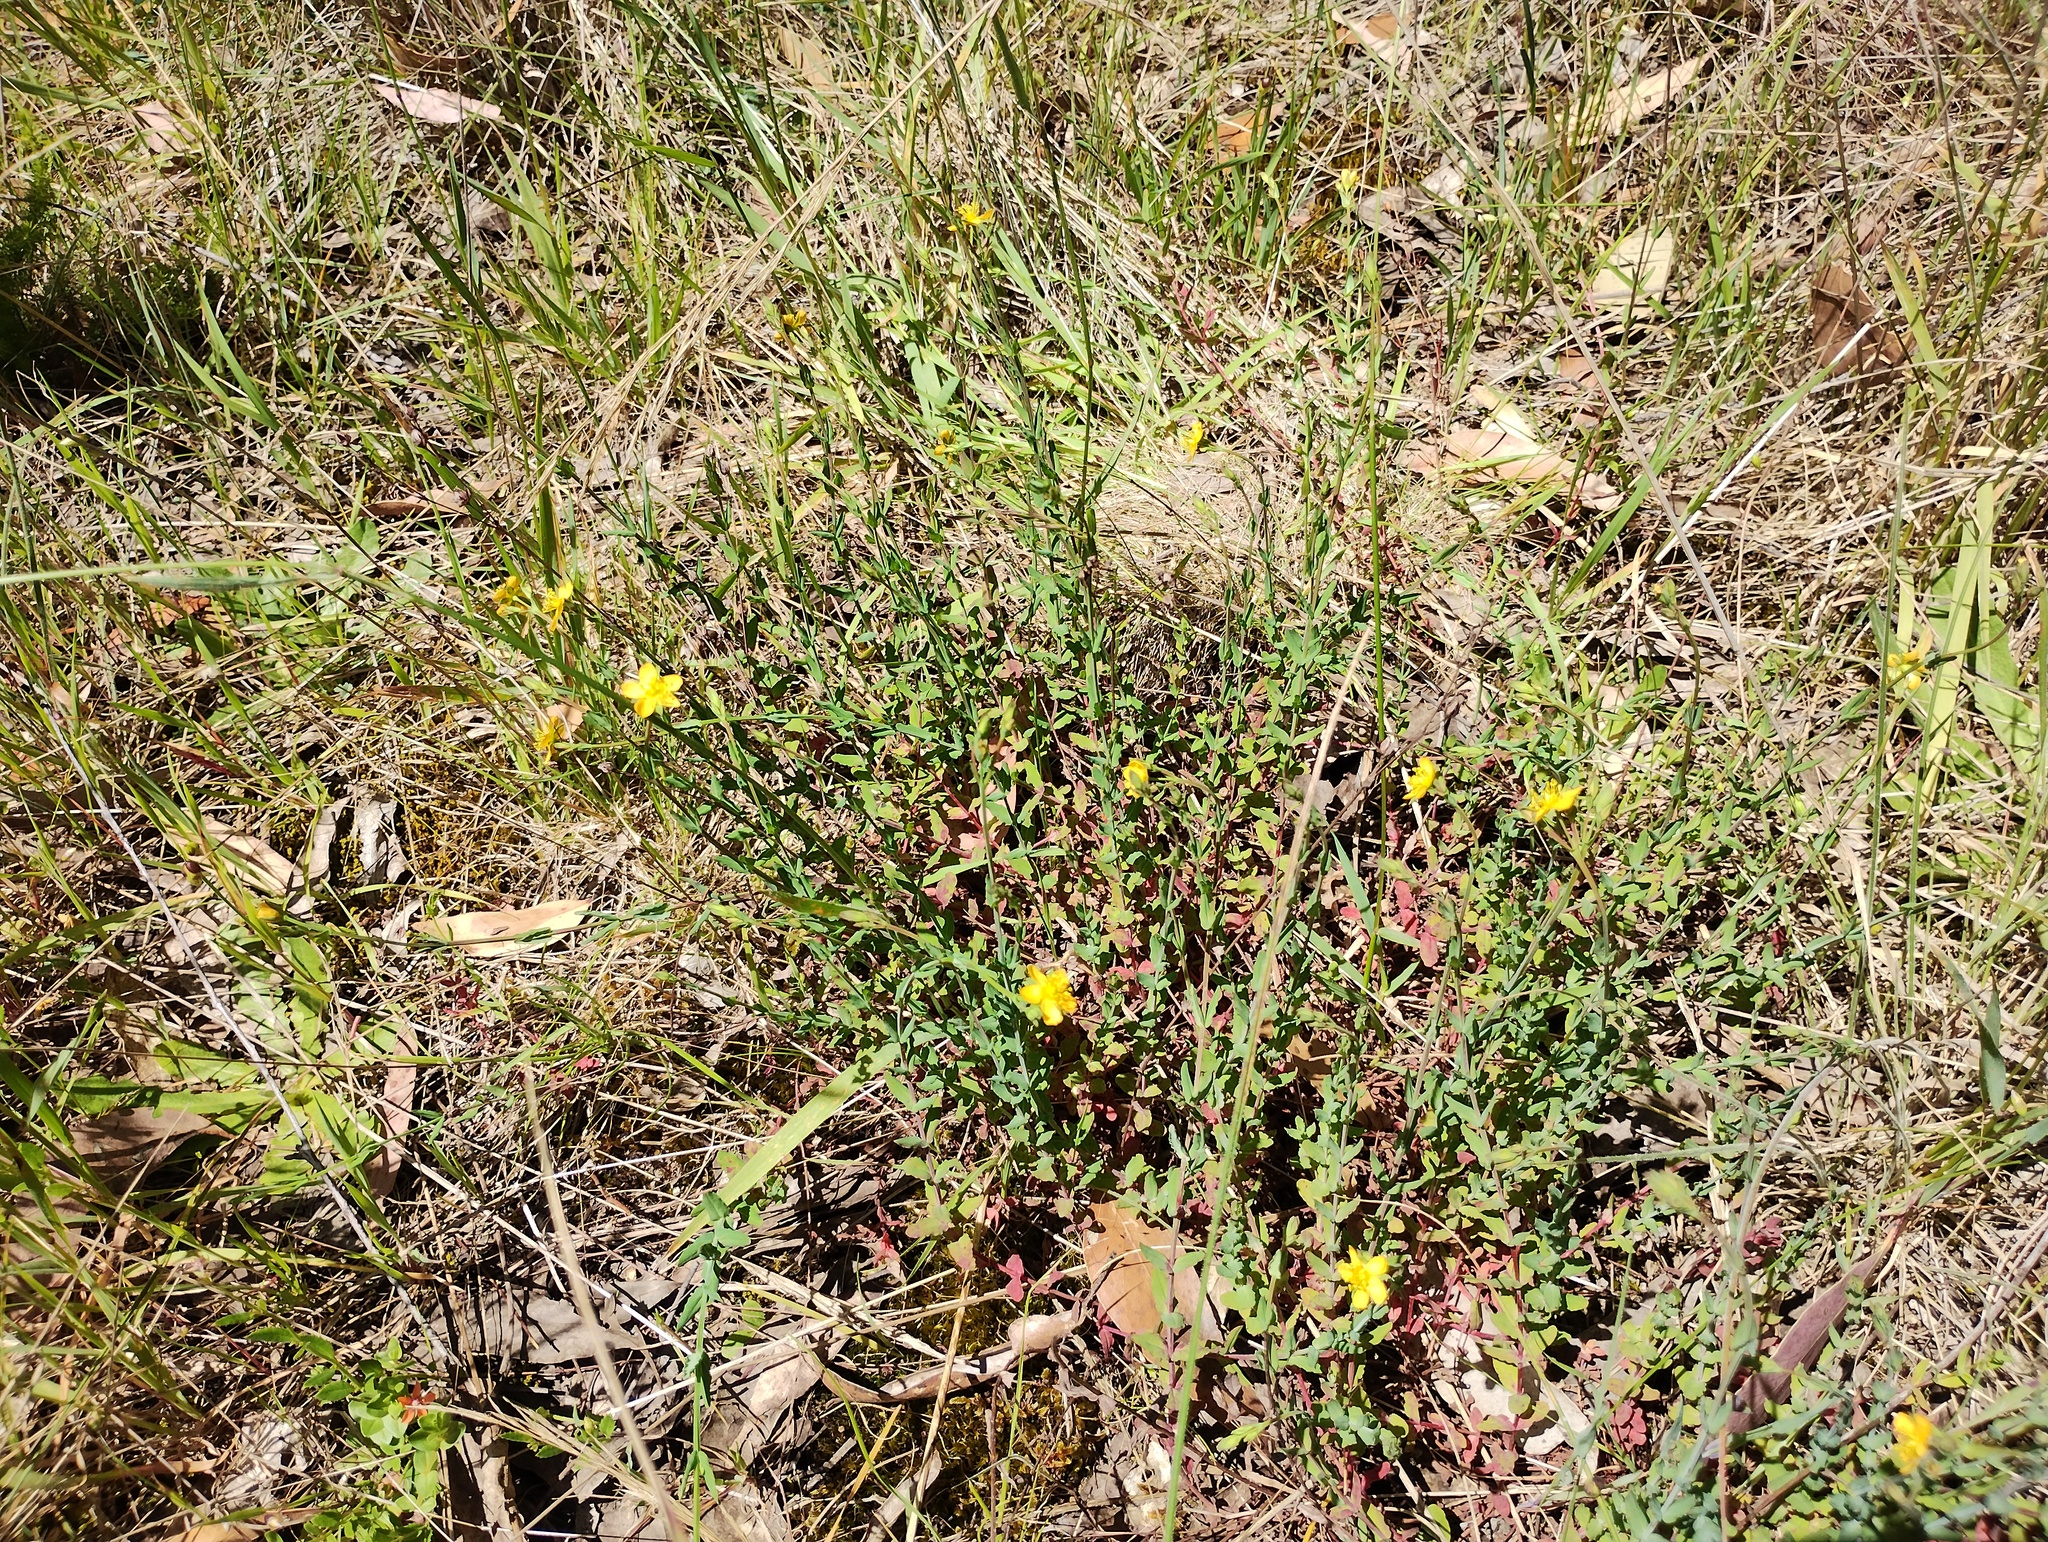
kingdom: Plantae
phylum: Tracheophyta
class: Magnoliopsida
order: Malpighiales
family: Hypericaceae
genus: Hypericum
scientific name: Hypericum gramineum
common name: Grassy st. johnswort
